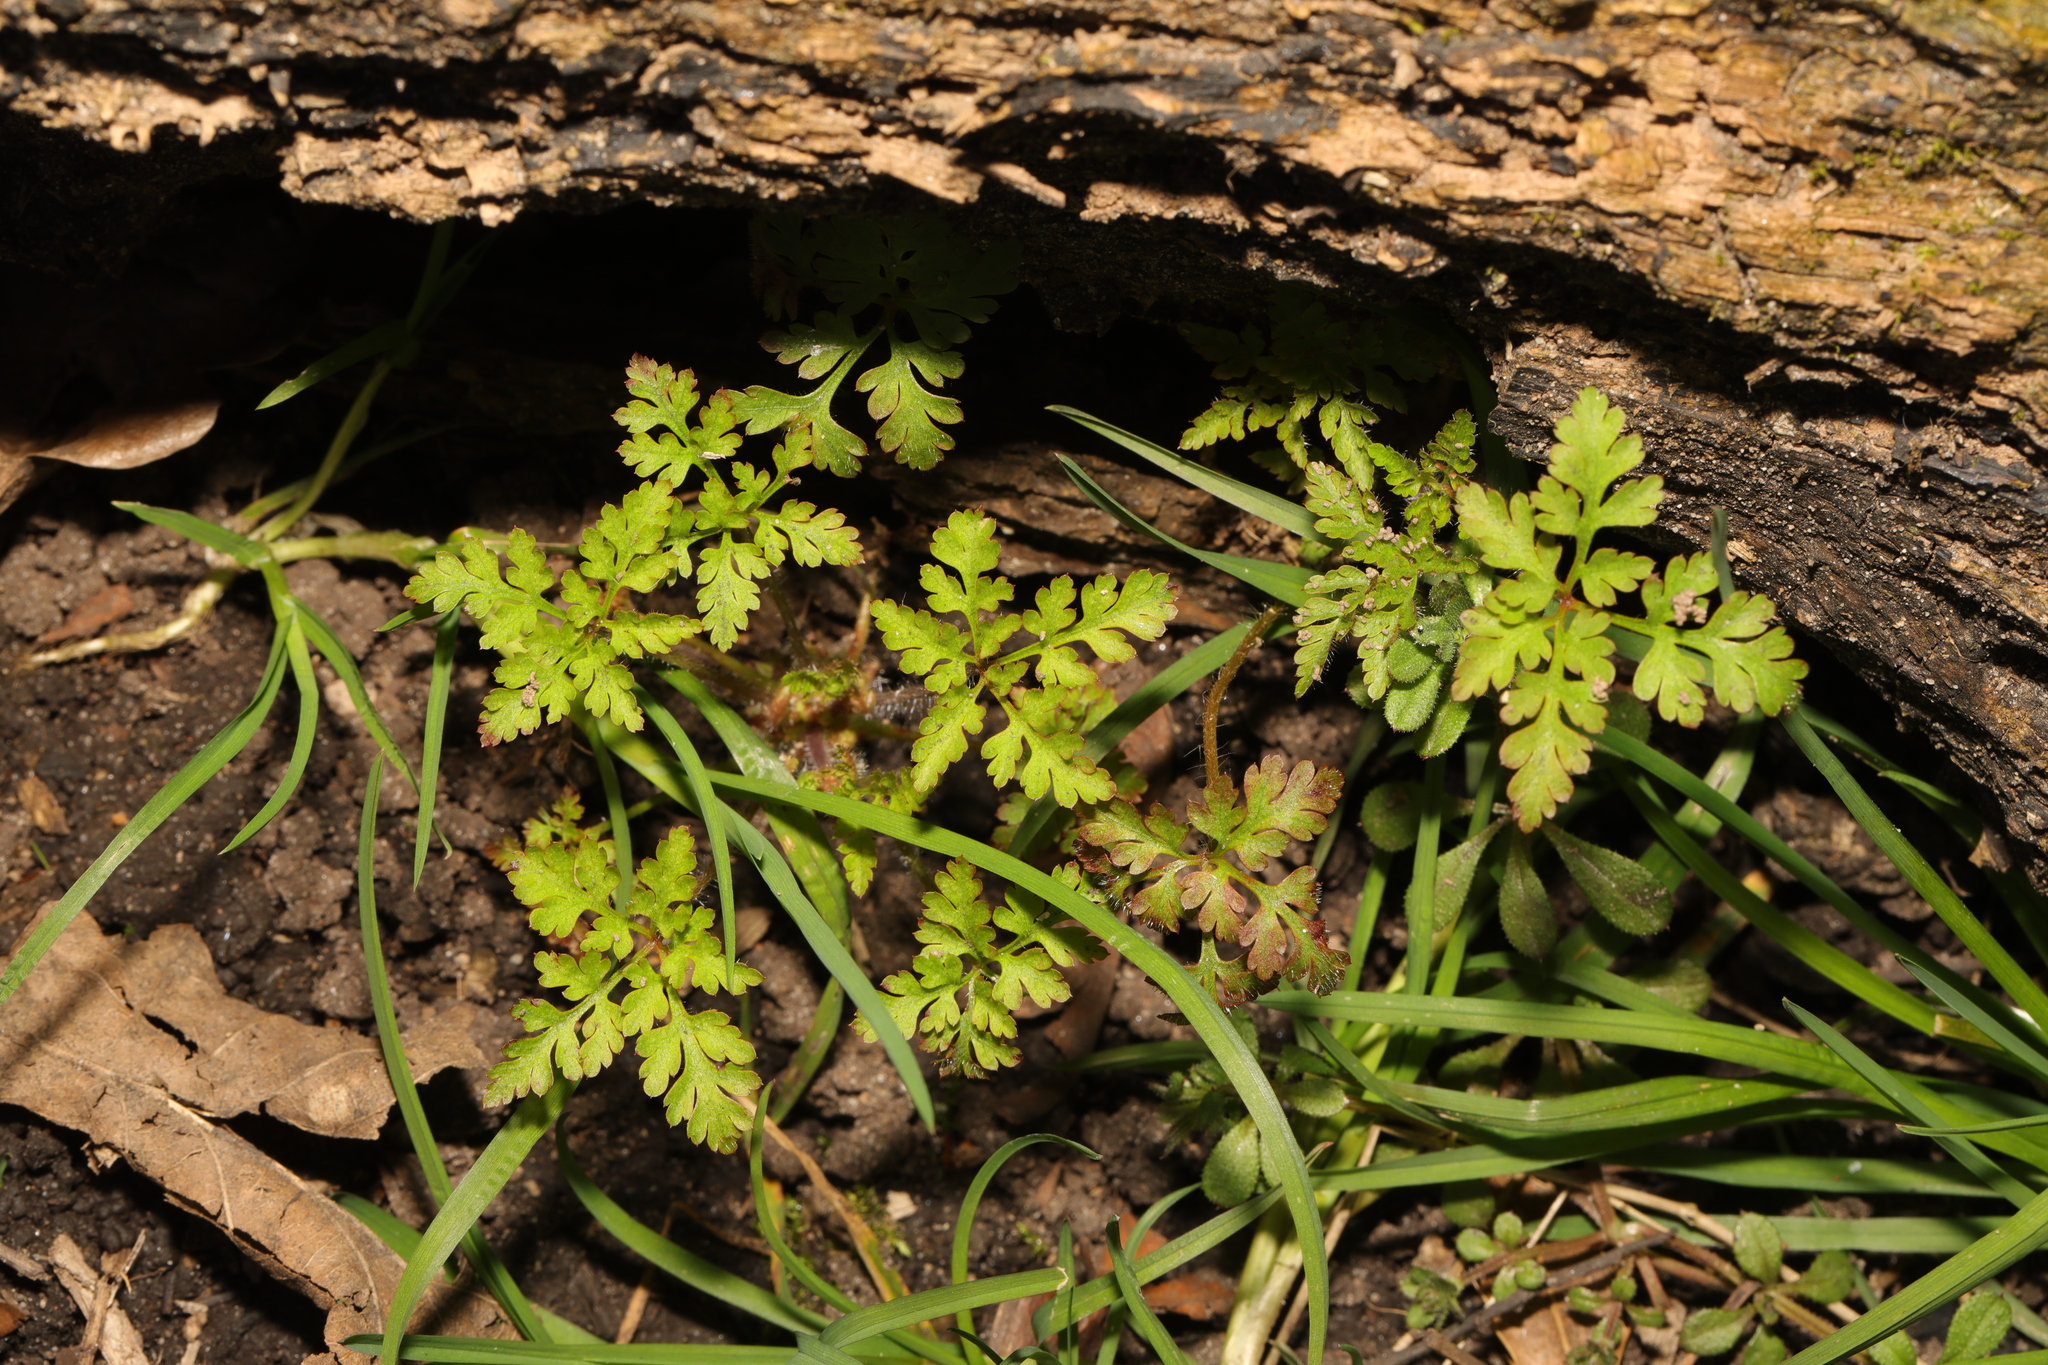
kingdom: Plantae
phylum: Tracheophyta
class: Magnoliopsida
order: Geraniales
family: Geraniaceae
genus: Geranium
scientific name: Geranium robertianum
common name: Herb-robert
